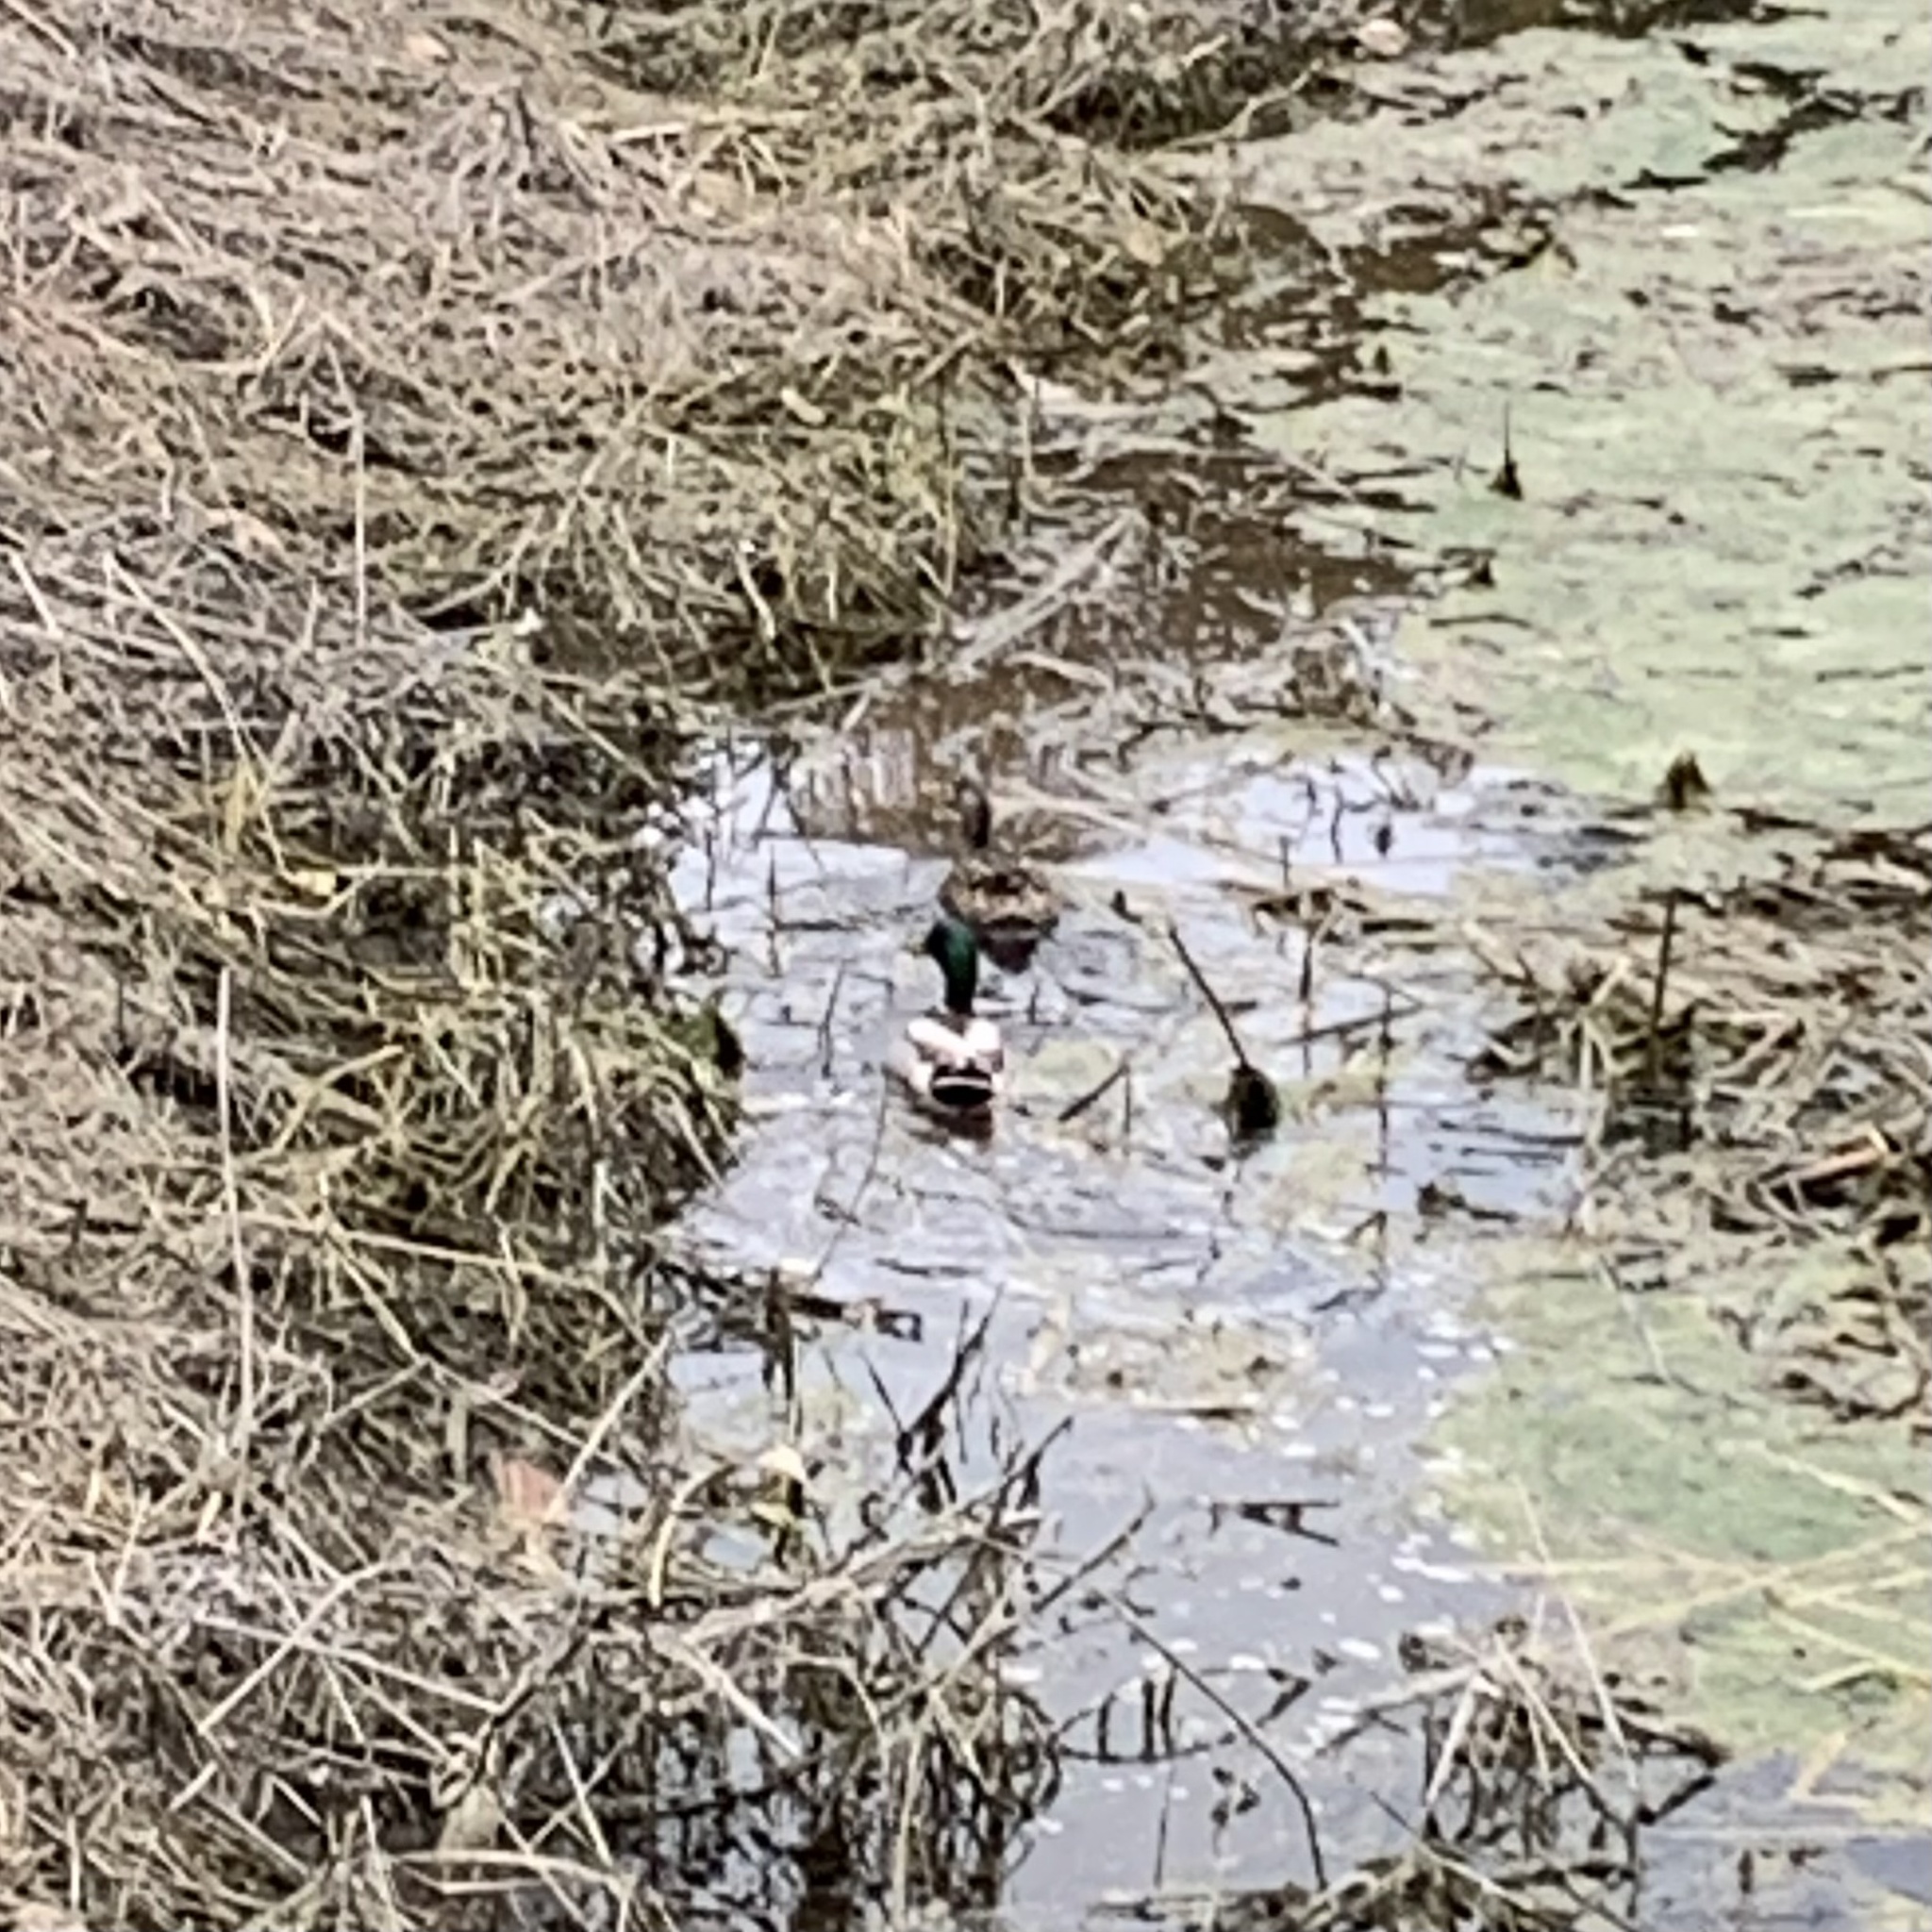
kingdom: Animalia
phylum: Chordata
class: Aves
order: Anseriformes
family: Anatidae
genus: Anas
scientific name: Anas platyrhynchos
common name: Mallard
